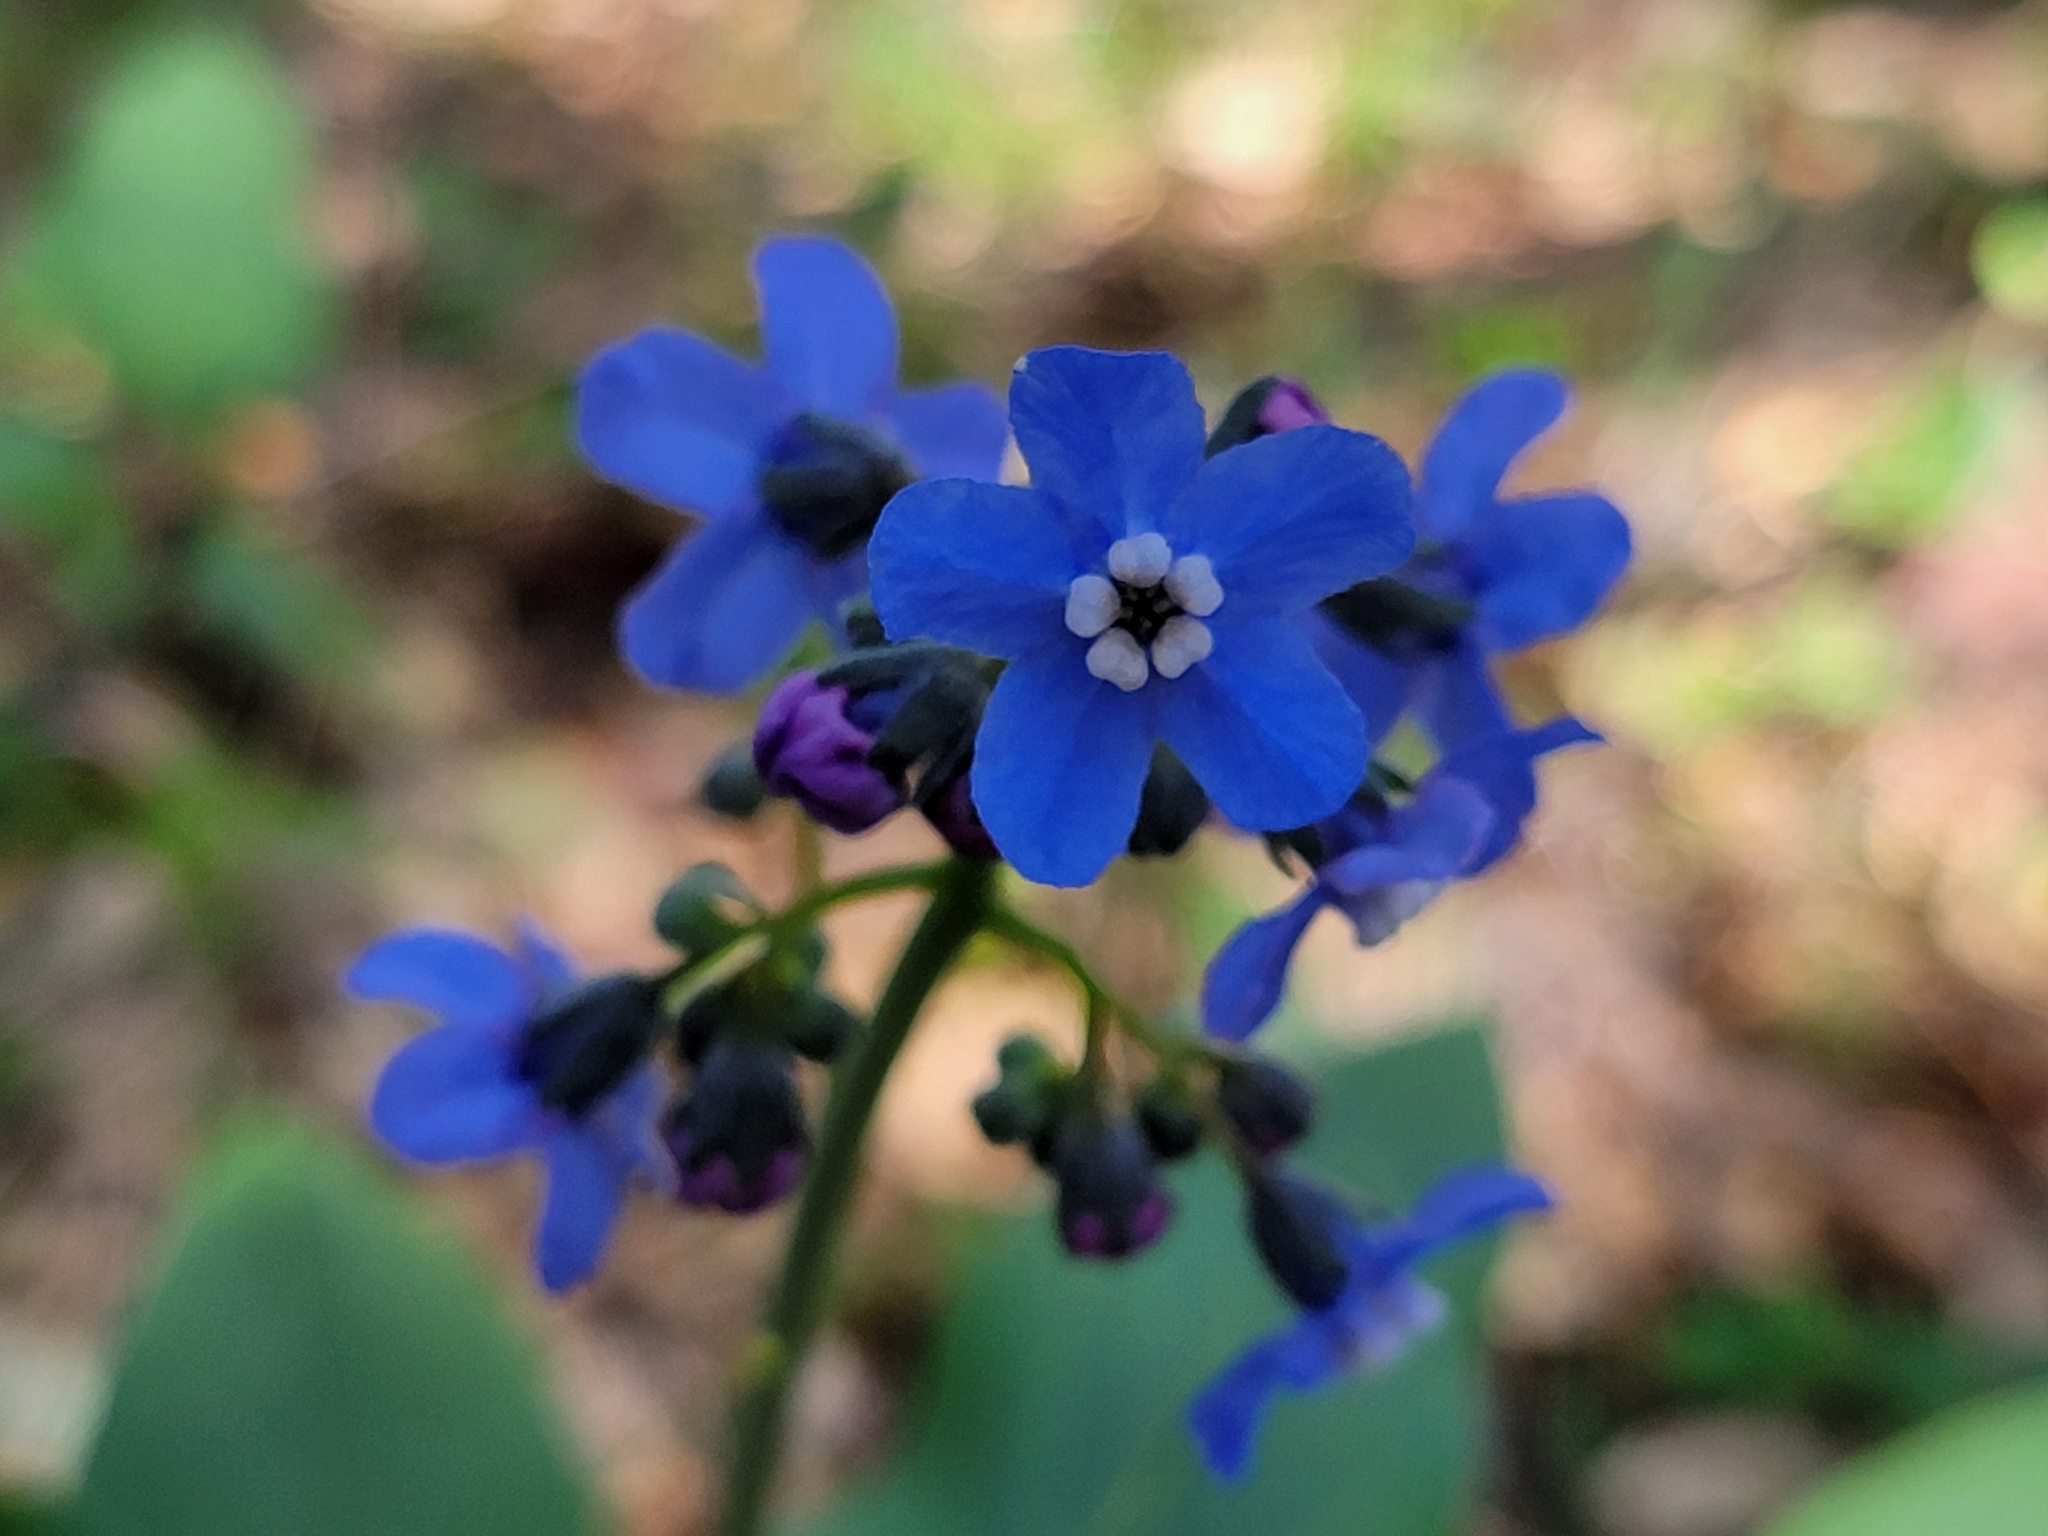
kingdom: Plantae
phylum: Tracheophyta
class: Magnoliopsida
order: Boraginales
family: Boraginaceae
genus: Adelinia
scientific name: Adelinia grande
